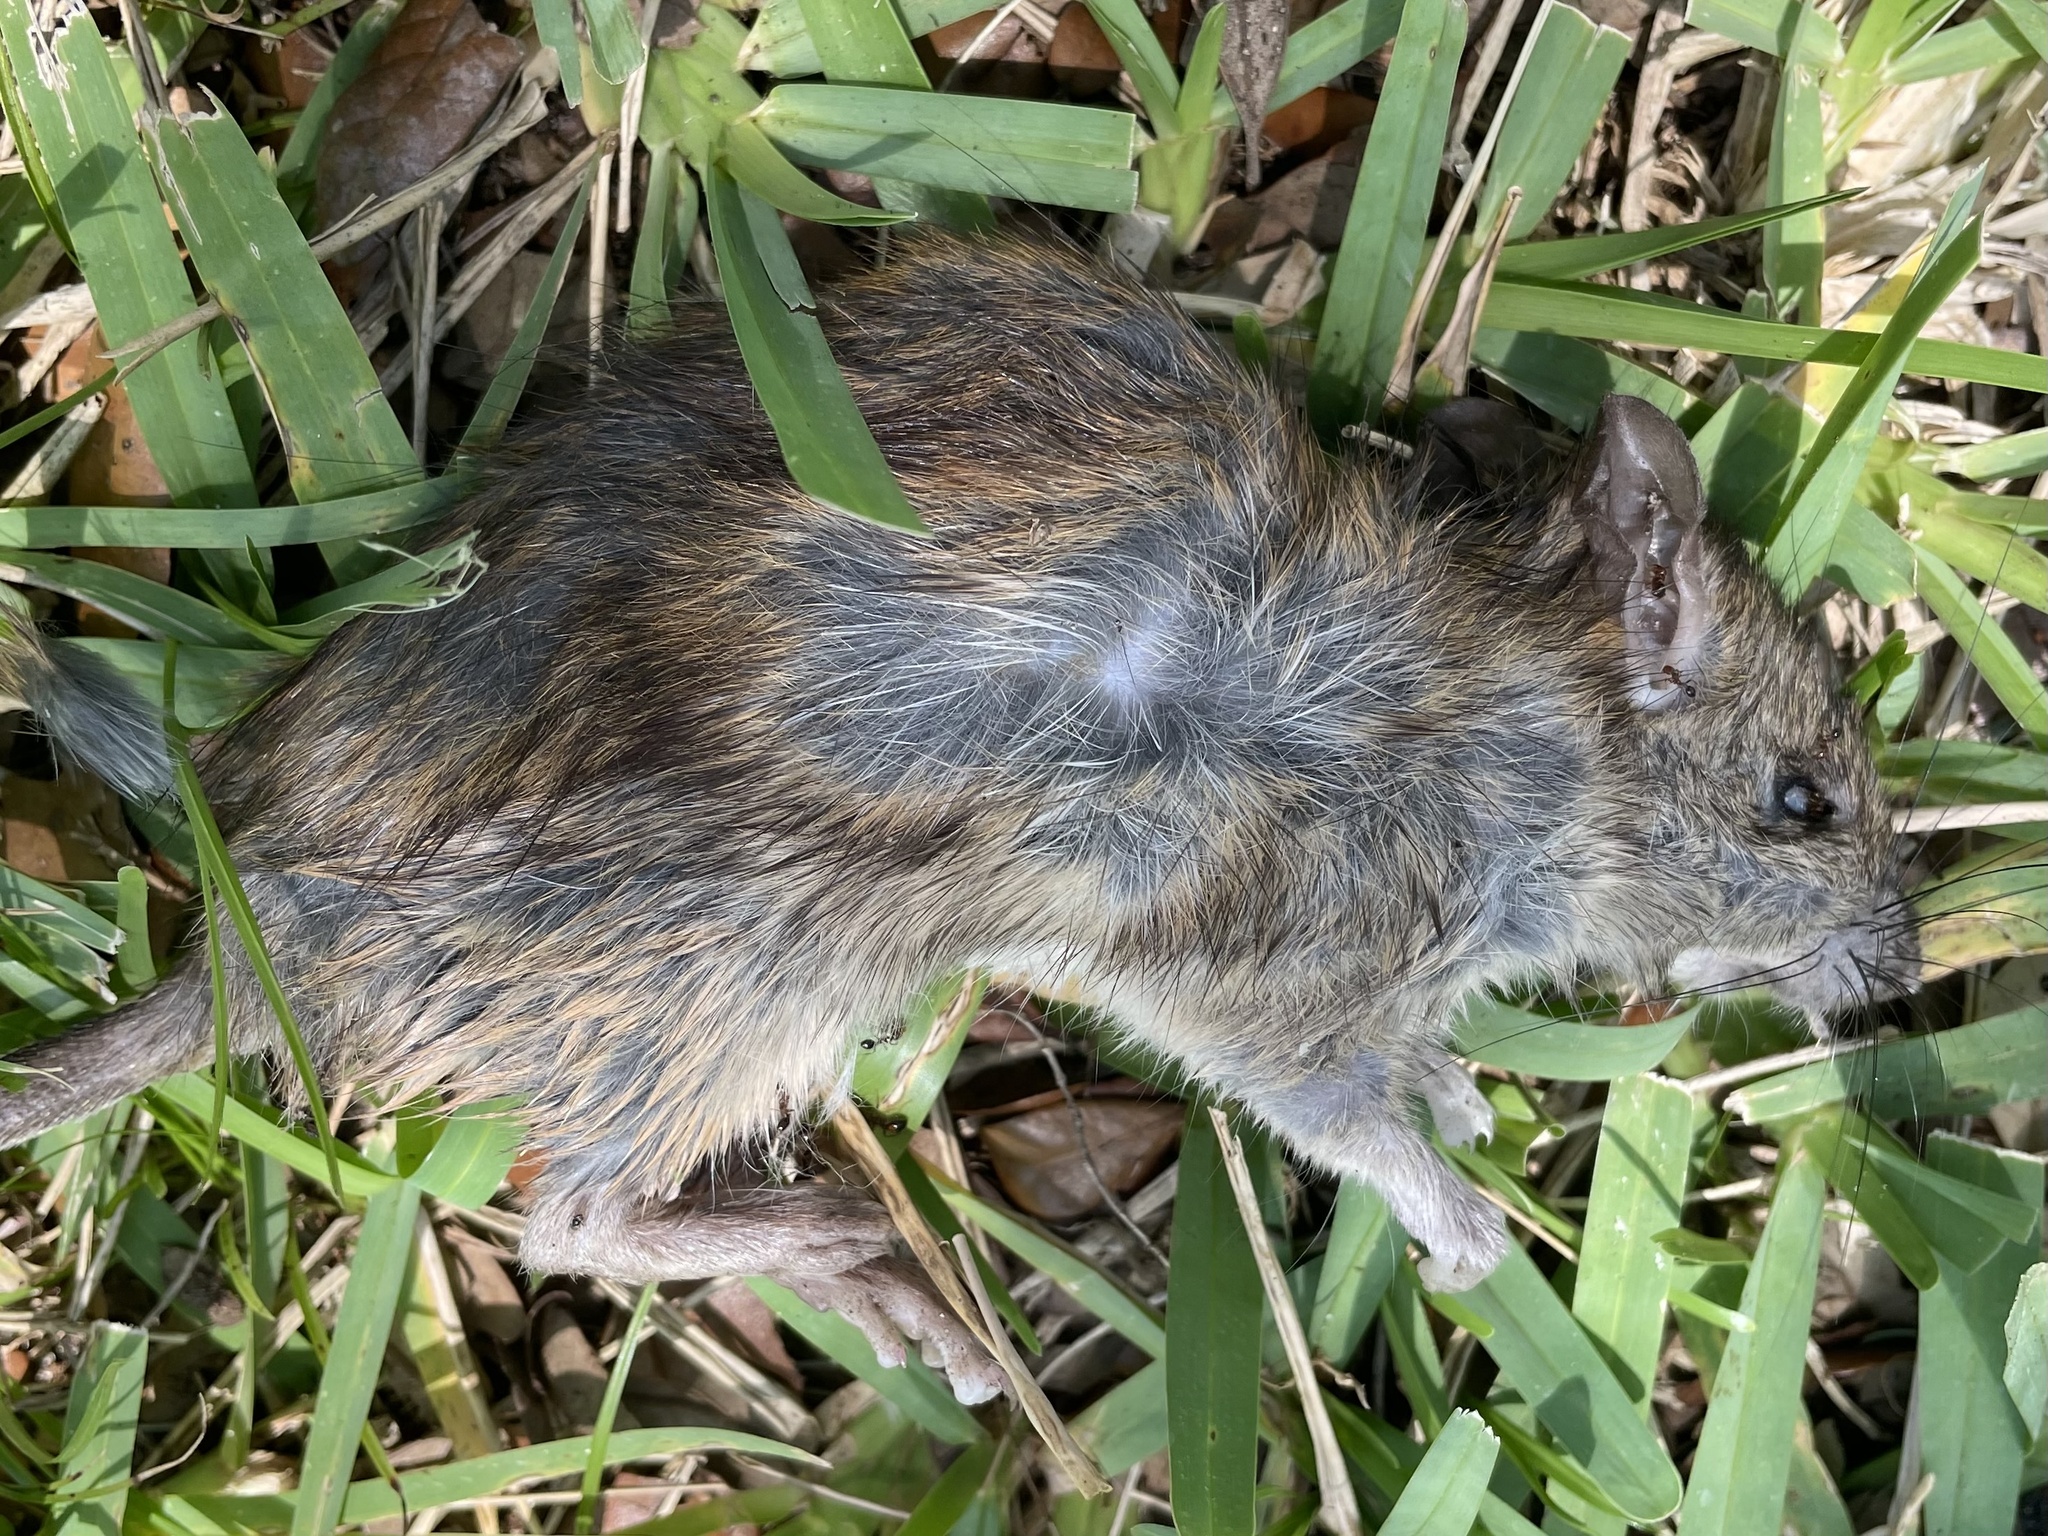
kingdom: Animalia
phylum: Chordata
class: Mammalia
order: Rodentia
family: Muridae
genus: Rattus
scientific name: Rattus rattus
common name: Black rat
